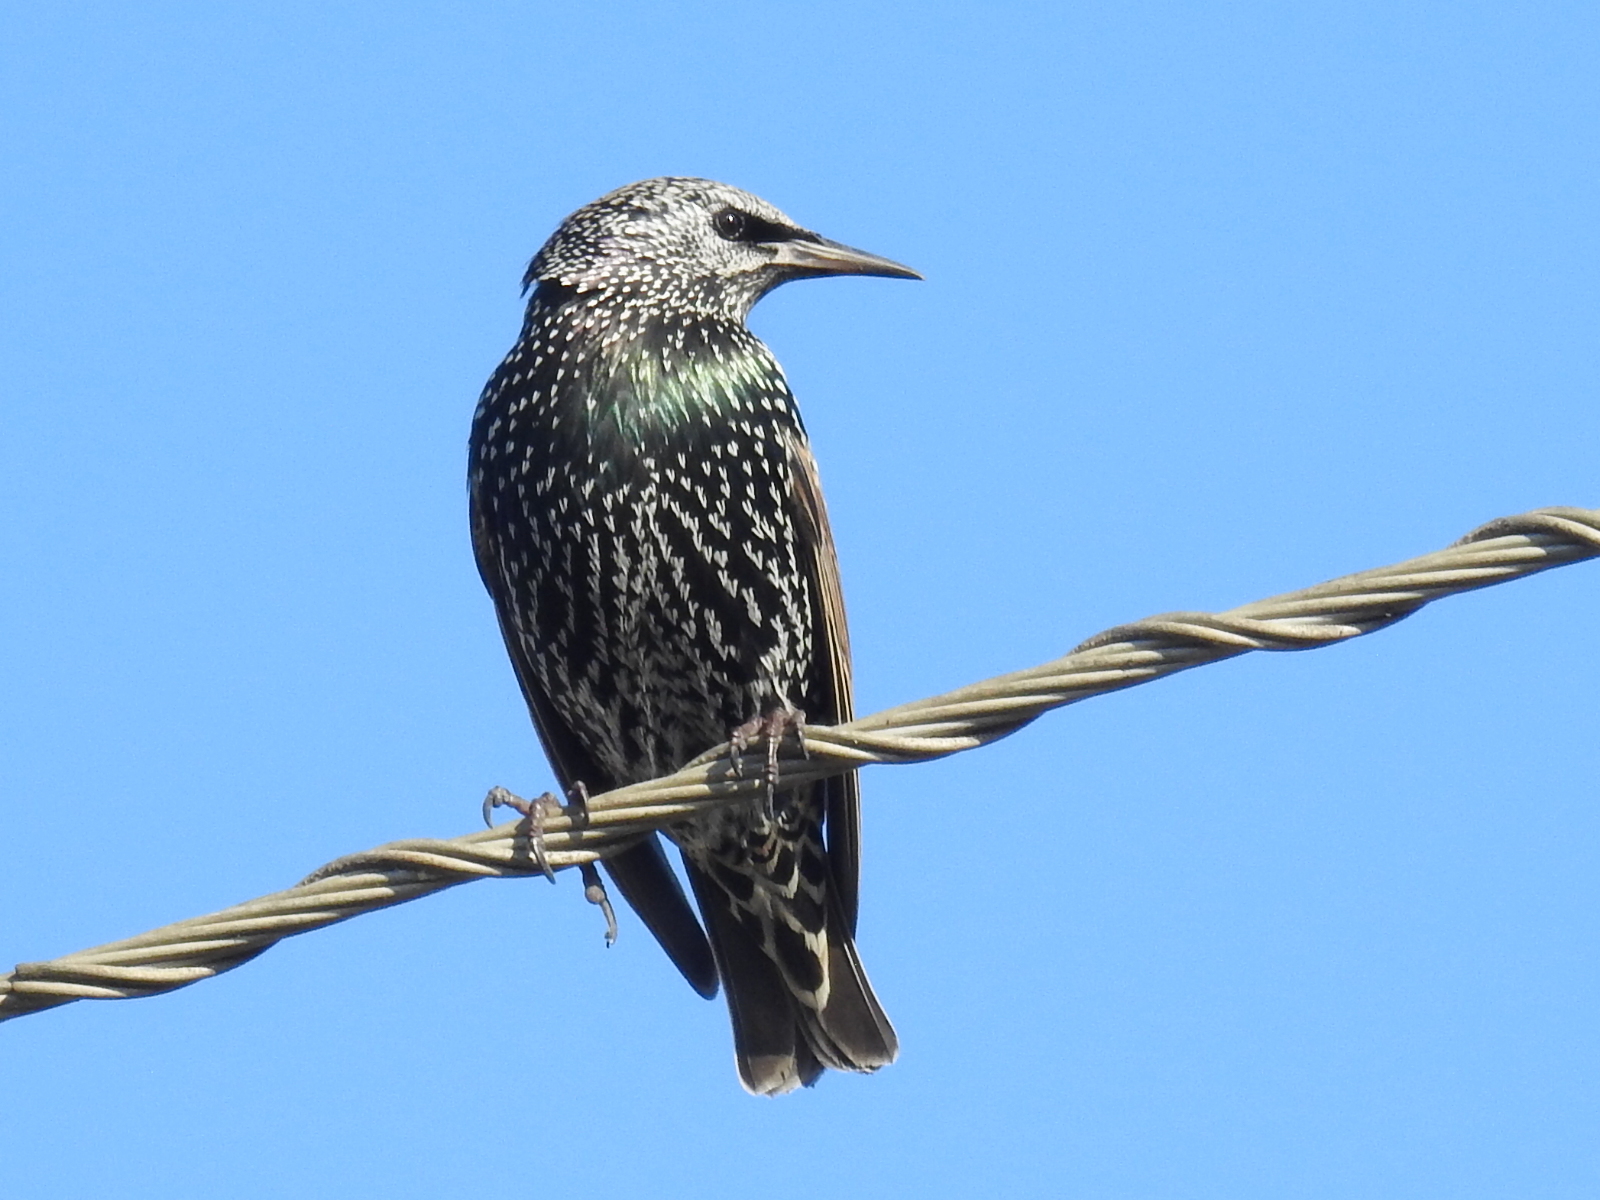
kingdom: Animalia
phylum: Chordata
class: Aves
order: Passeriformes
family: Sturnidae
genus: Sturnus
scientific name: Sturnus vulgaris
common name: Common starling
